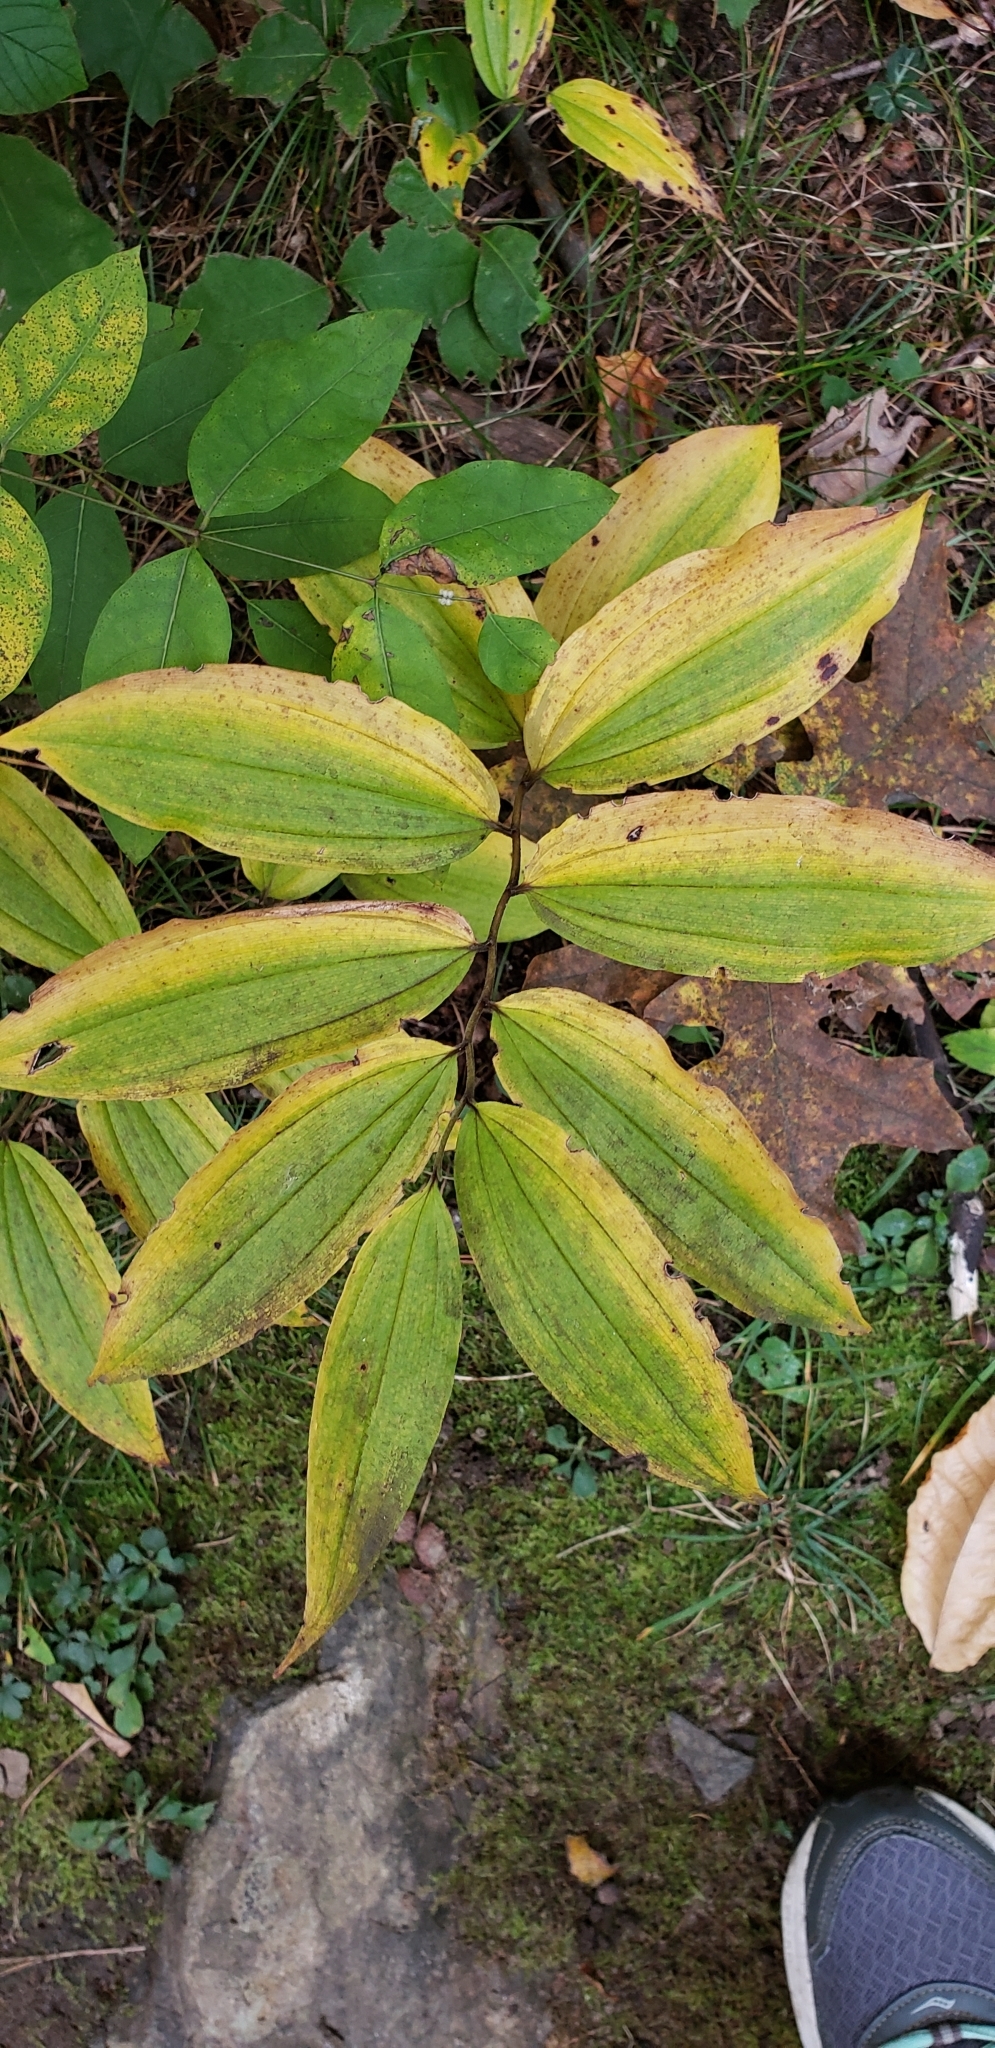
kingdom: Plantae
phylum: Tracheophyta
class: Liliopsida
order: Asparagales
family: Asparagaceae
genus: Maianthemum
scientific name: Maianthemum racemosum
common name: False spikenard
